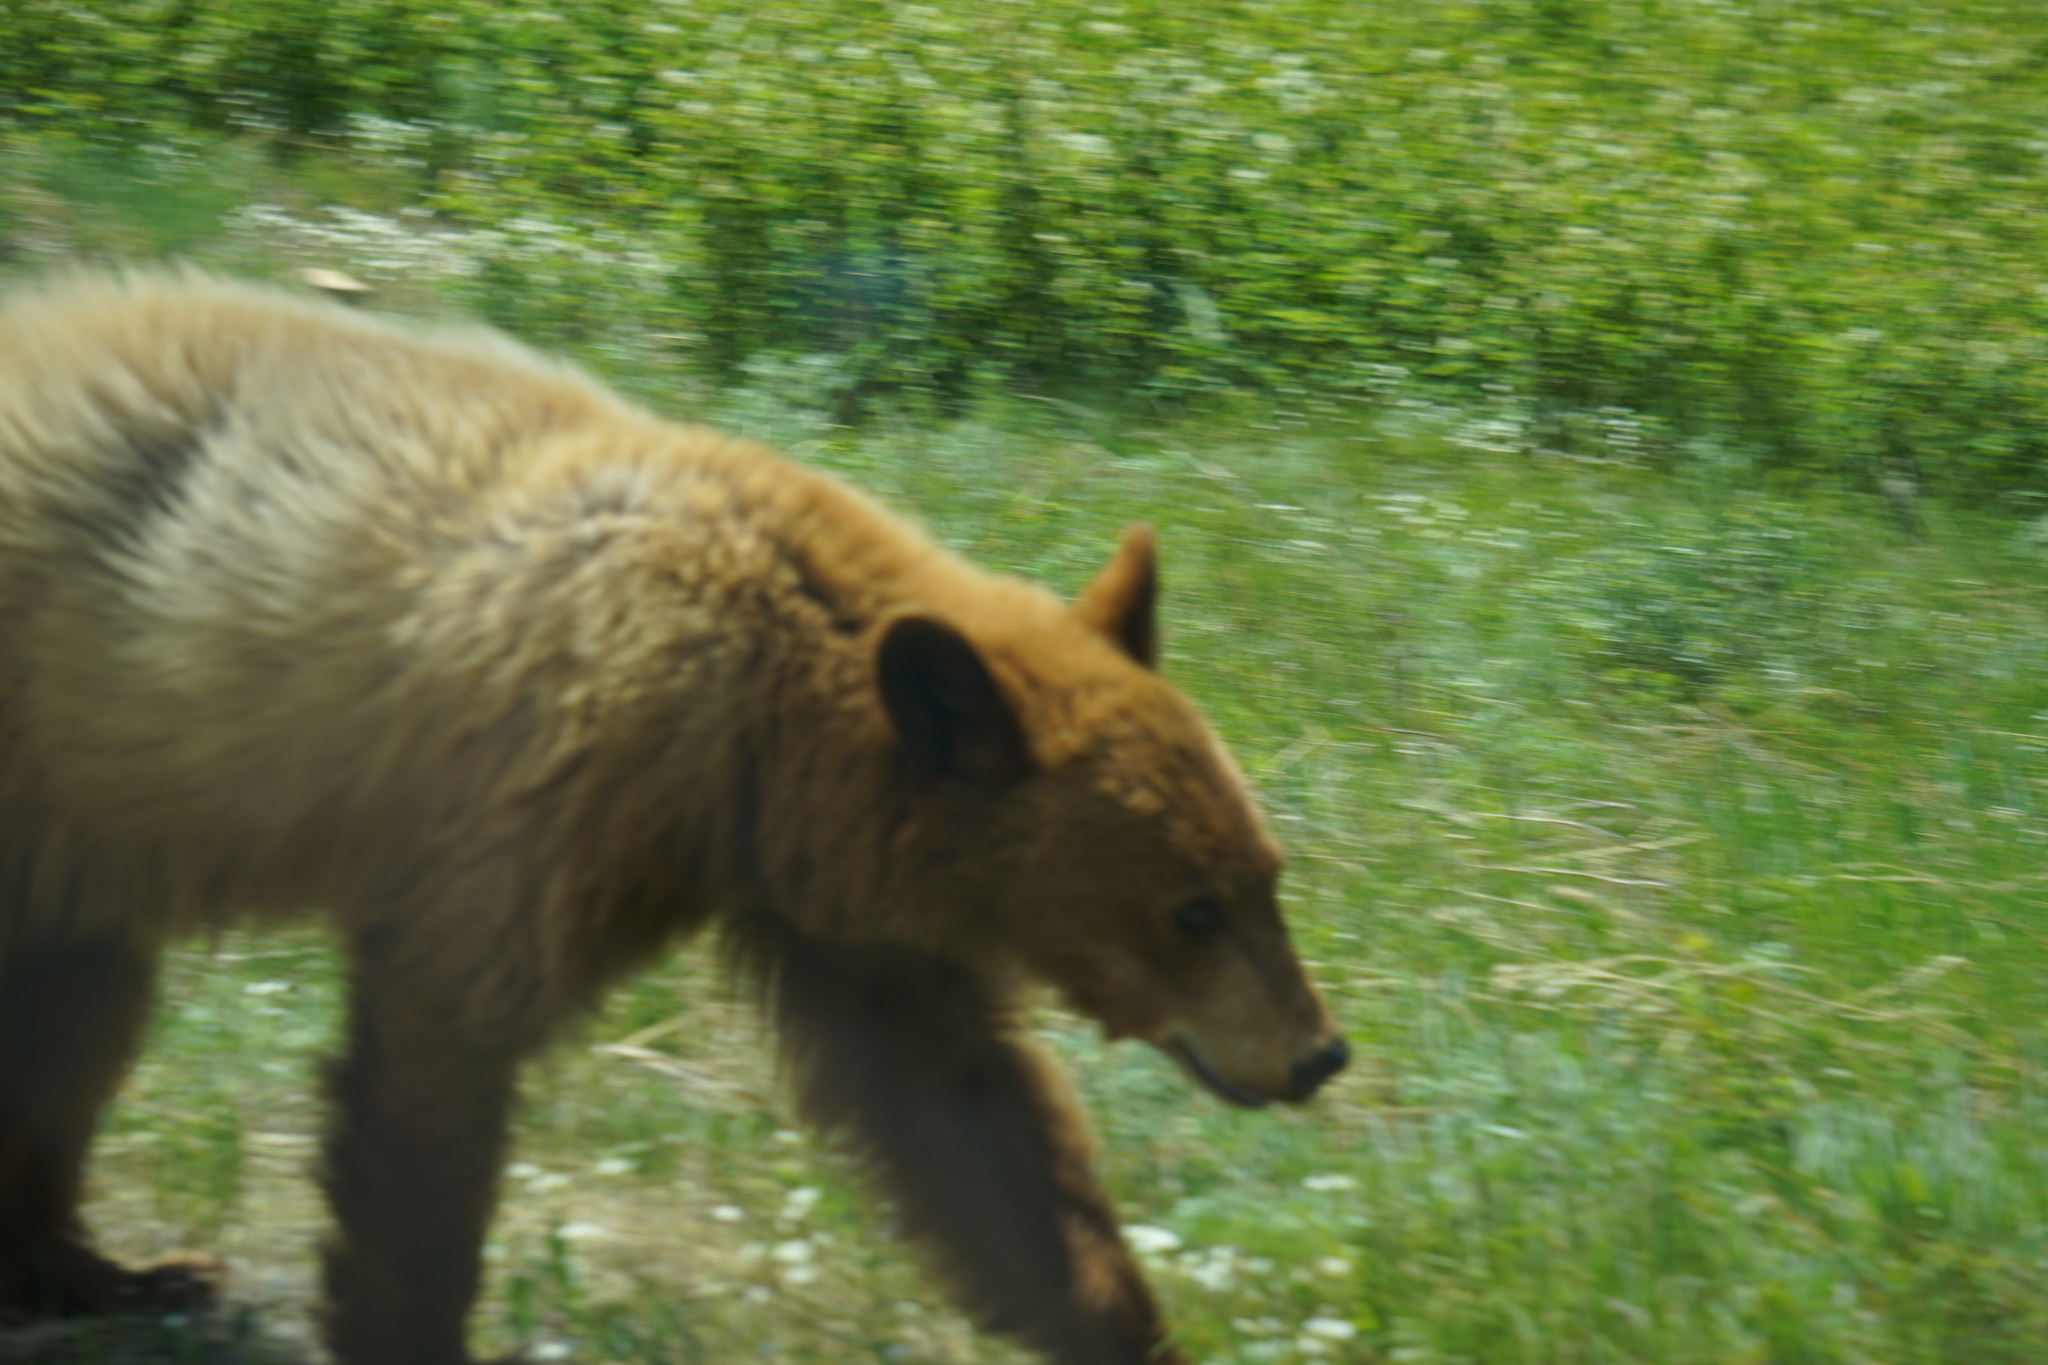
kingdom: Animalia
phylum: Chordata
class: Mammalia
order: Carnivora
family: Ursidae
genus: Ursus
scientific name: Ursus americanus
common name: American black bear
